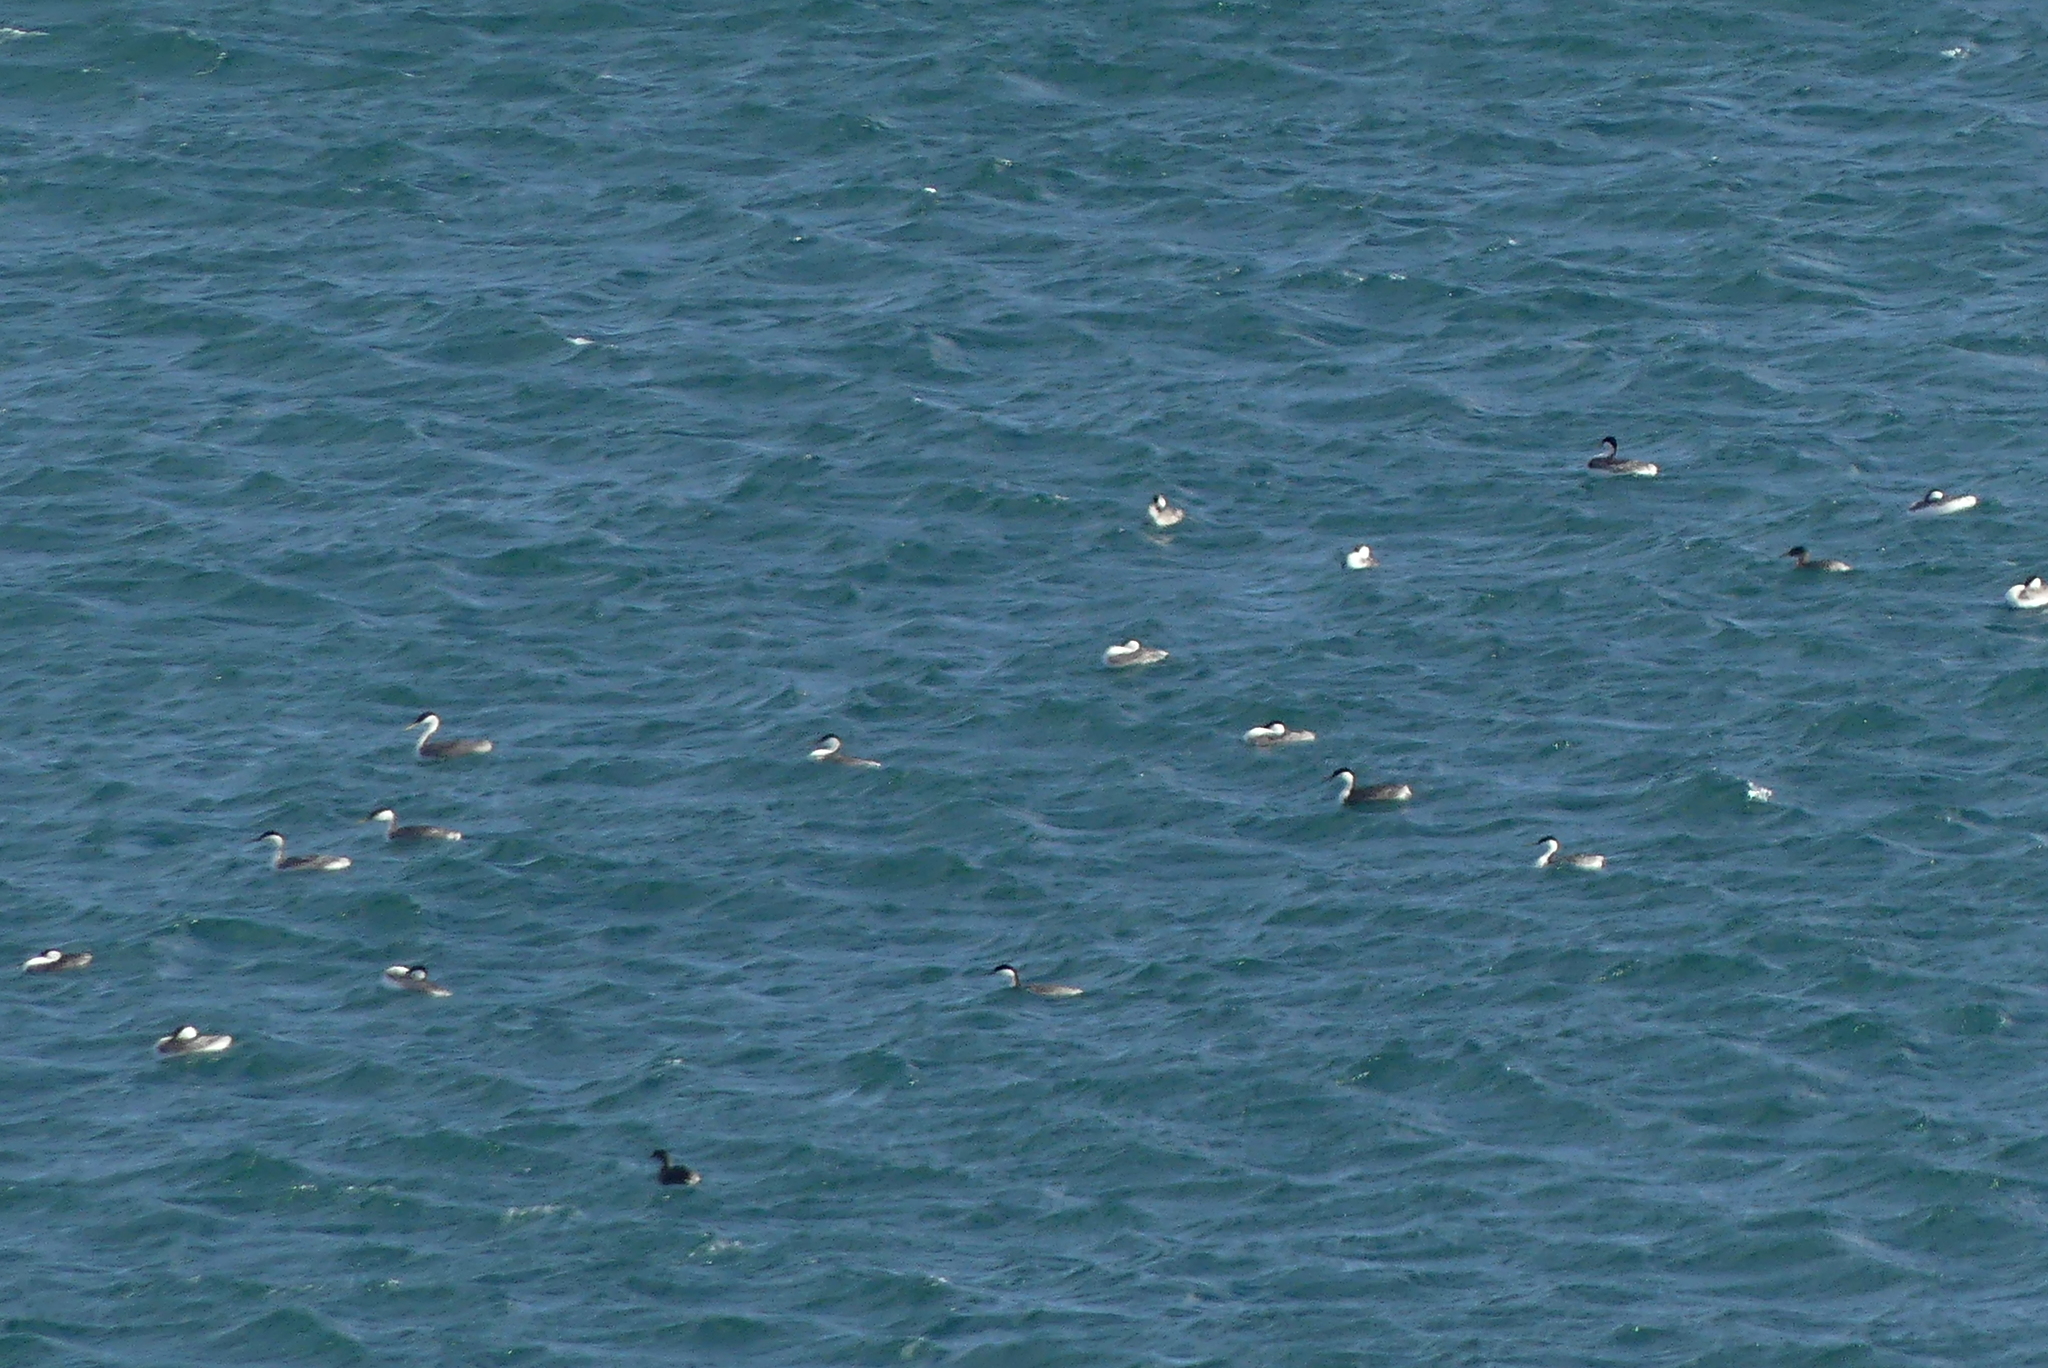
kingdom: Animalia
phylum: Chordata
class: Aves
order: Podicipediformes
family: Podicipedidae
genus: Aechmophorus
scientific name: Aechmophorus occidentalis
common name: Western grebe
